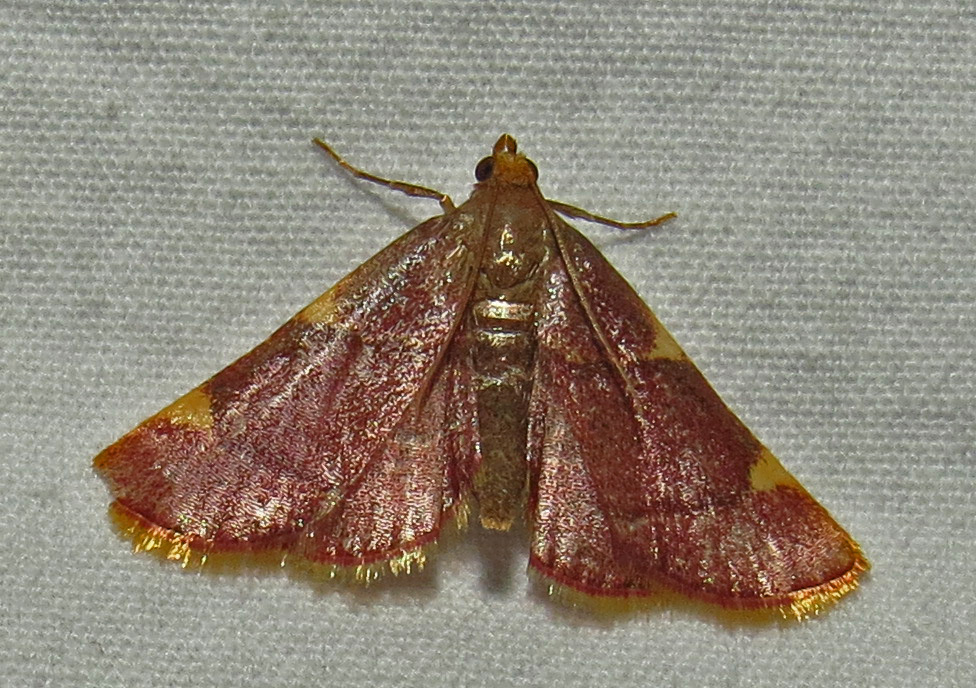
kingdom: Animalia
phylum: Arthropoda
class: Insecta
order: Lepidoptera
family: Pyralidae
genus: Hypsopygia
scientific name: Hypsopygia olinalis
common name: Yellow-fringed dolichomia moth
